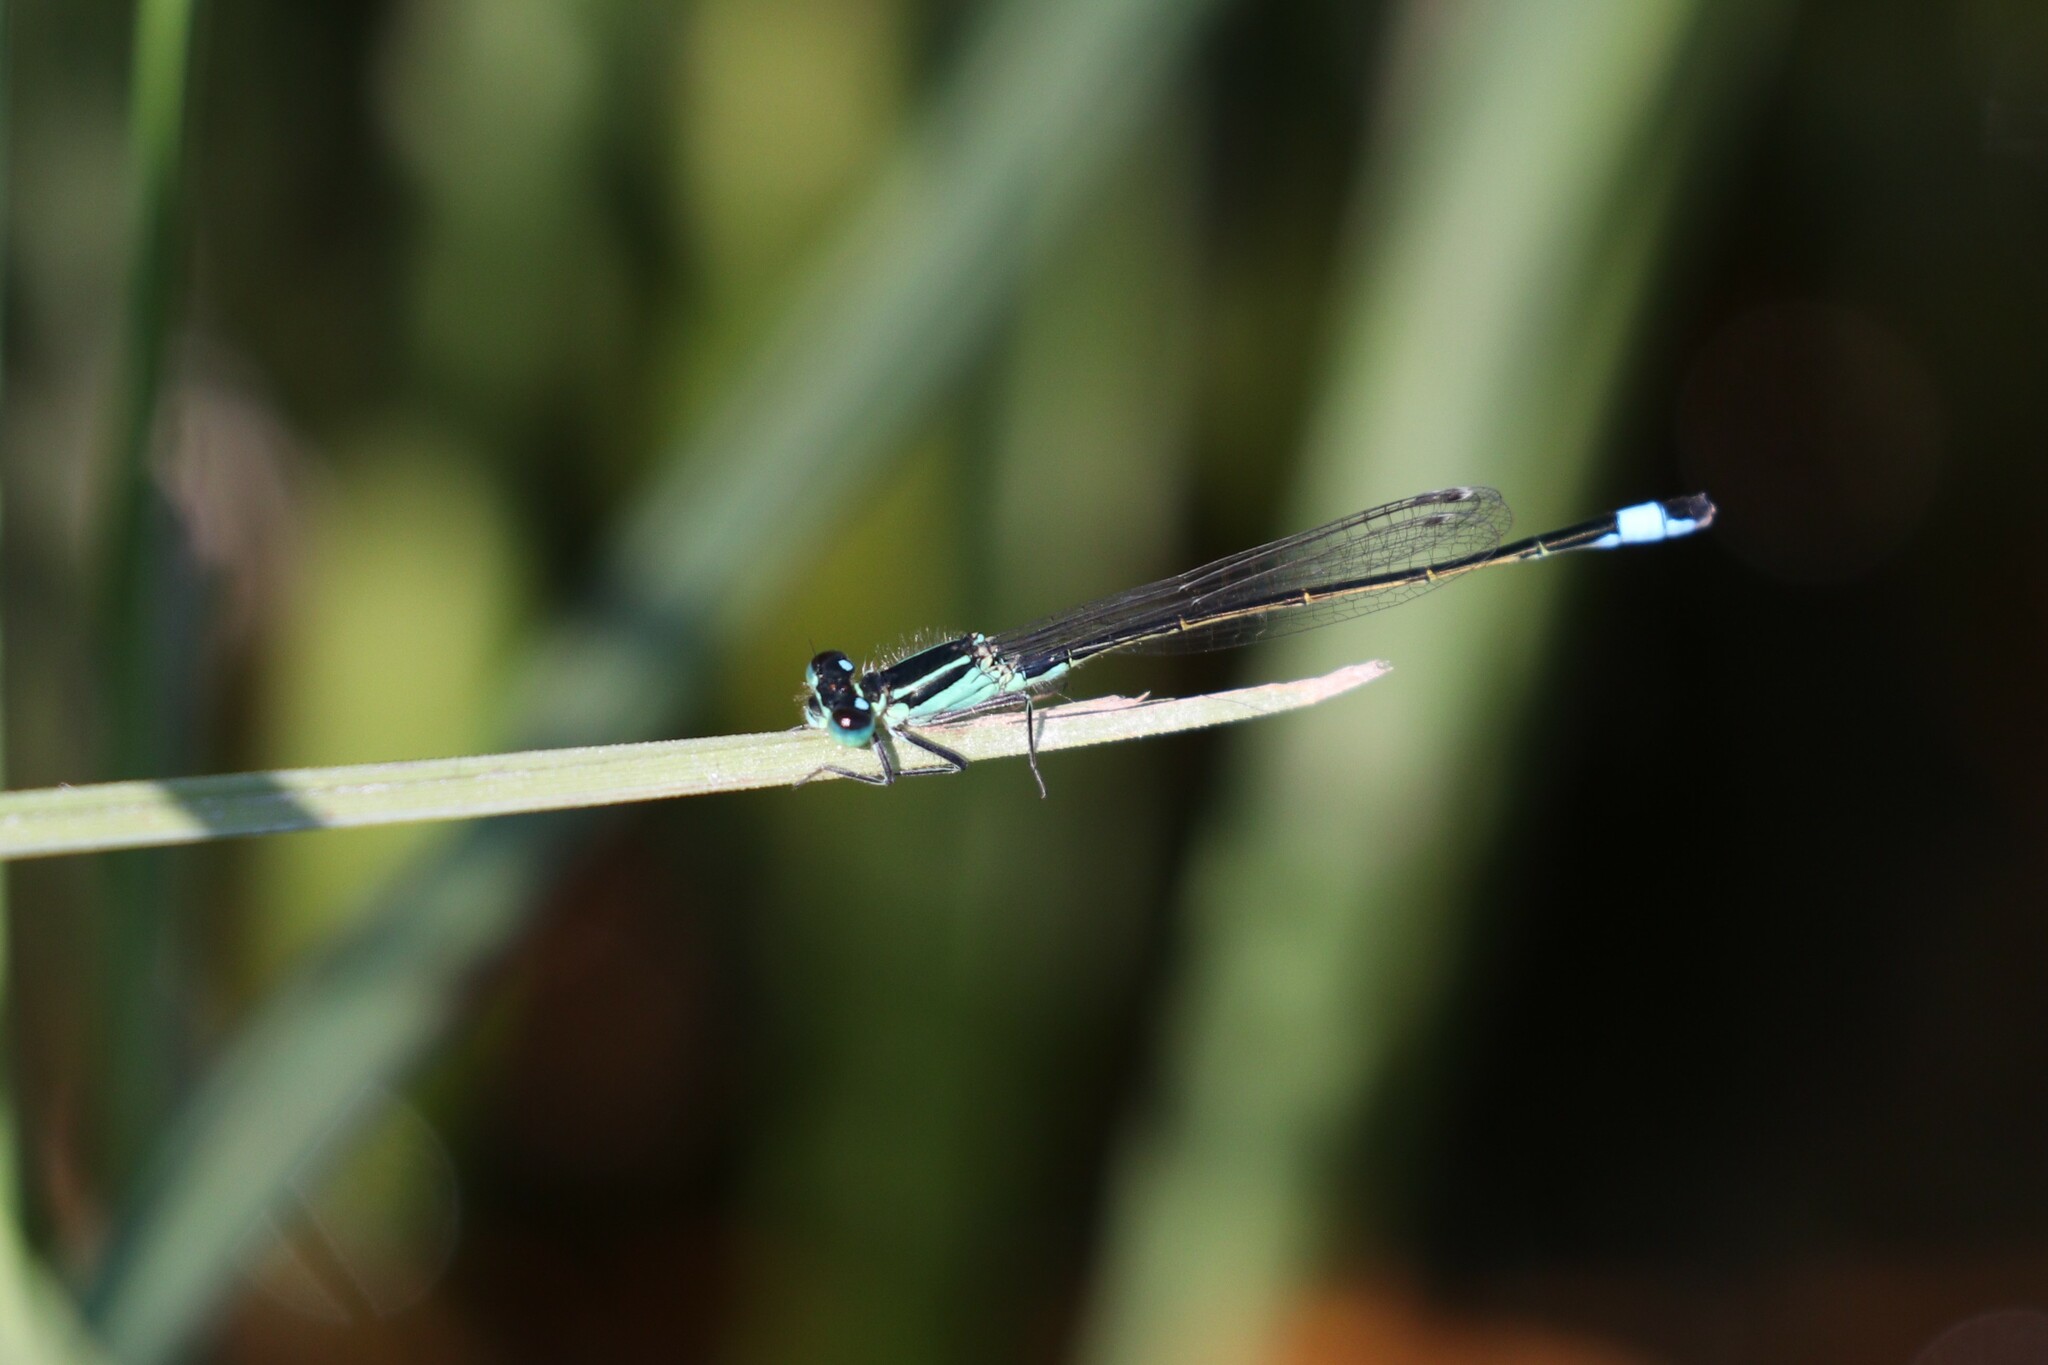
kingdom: Animalia
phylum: Arthropoda
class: Insecta
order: Odonata
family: Coenagrionidae
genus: Ischnura
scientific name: Ischnura elegans
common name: Blue-tailed damselfly
